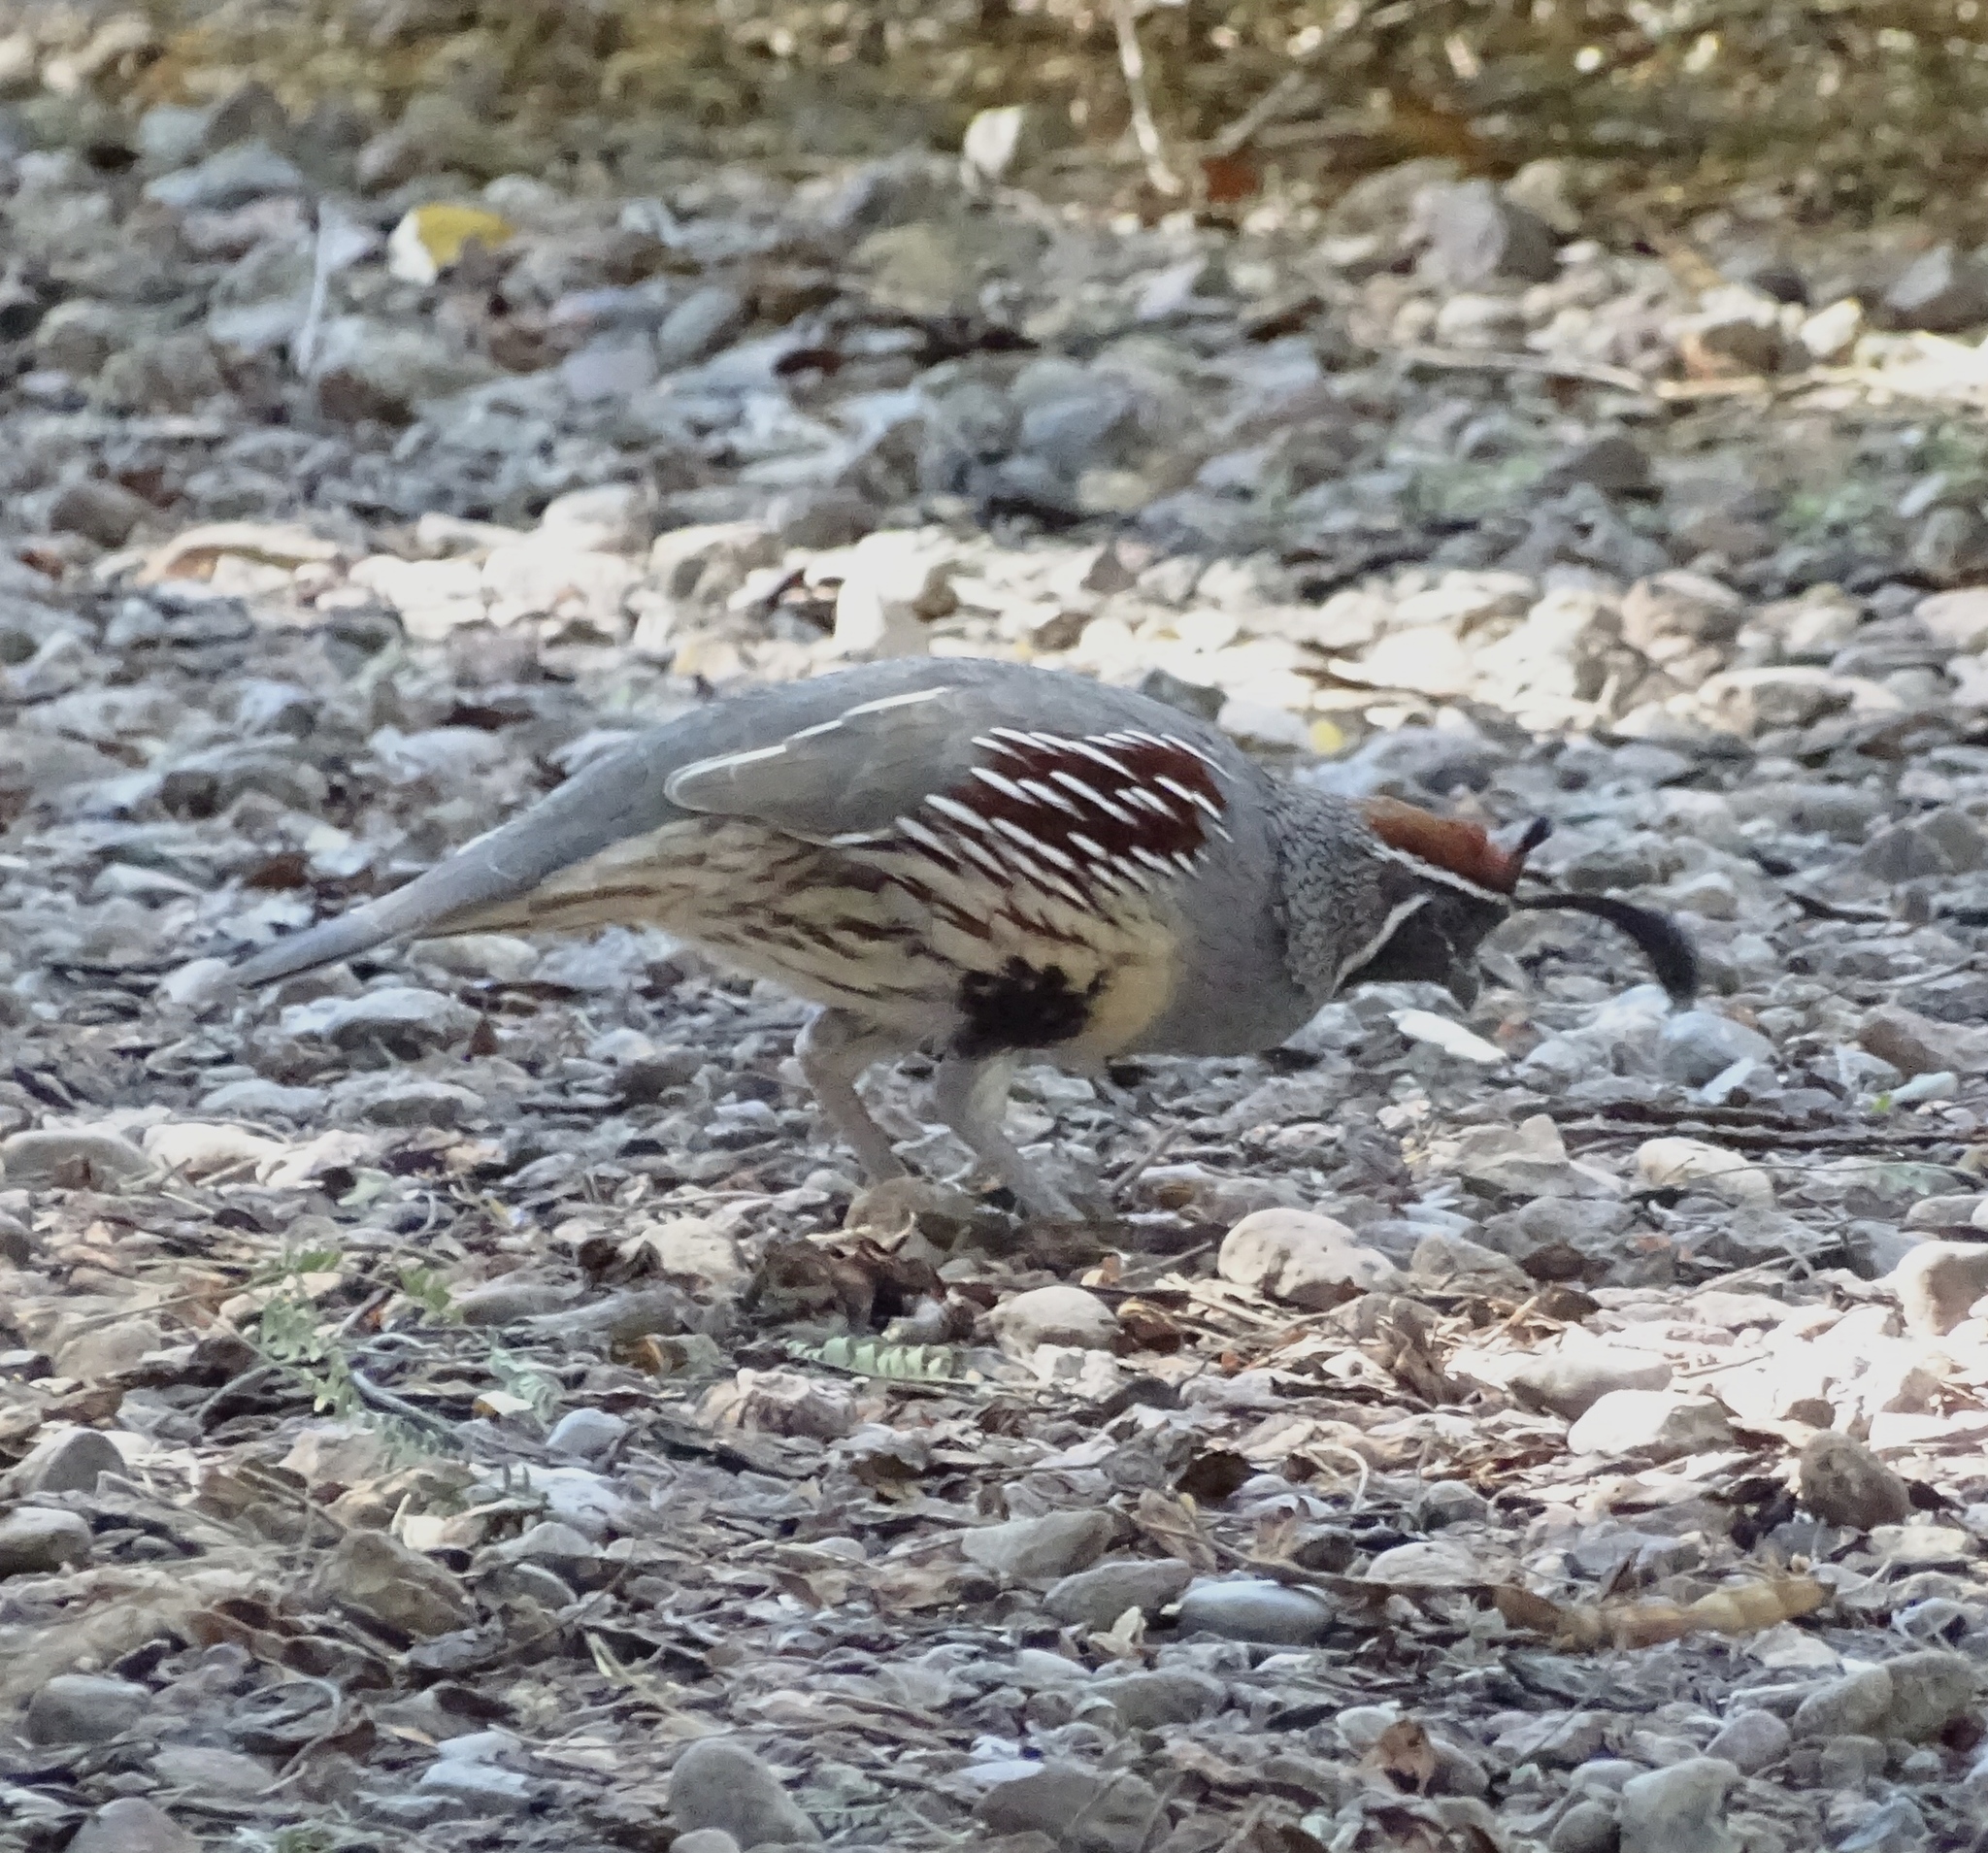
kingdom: Animalia
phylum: Chordata
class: Aves
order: Galliformes
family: Odontophoridae
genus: Callipepla
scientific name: Callipepla gambelii
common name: Gambel's quail
